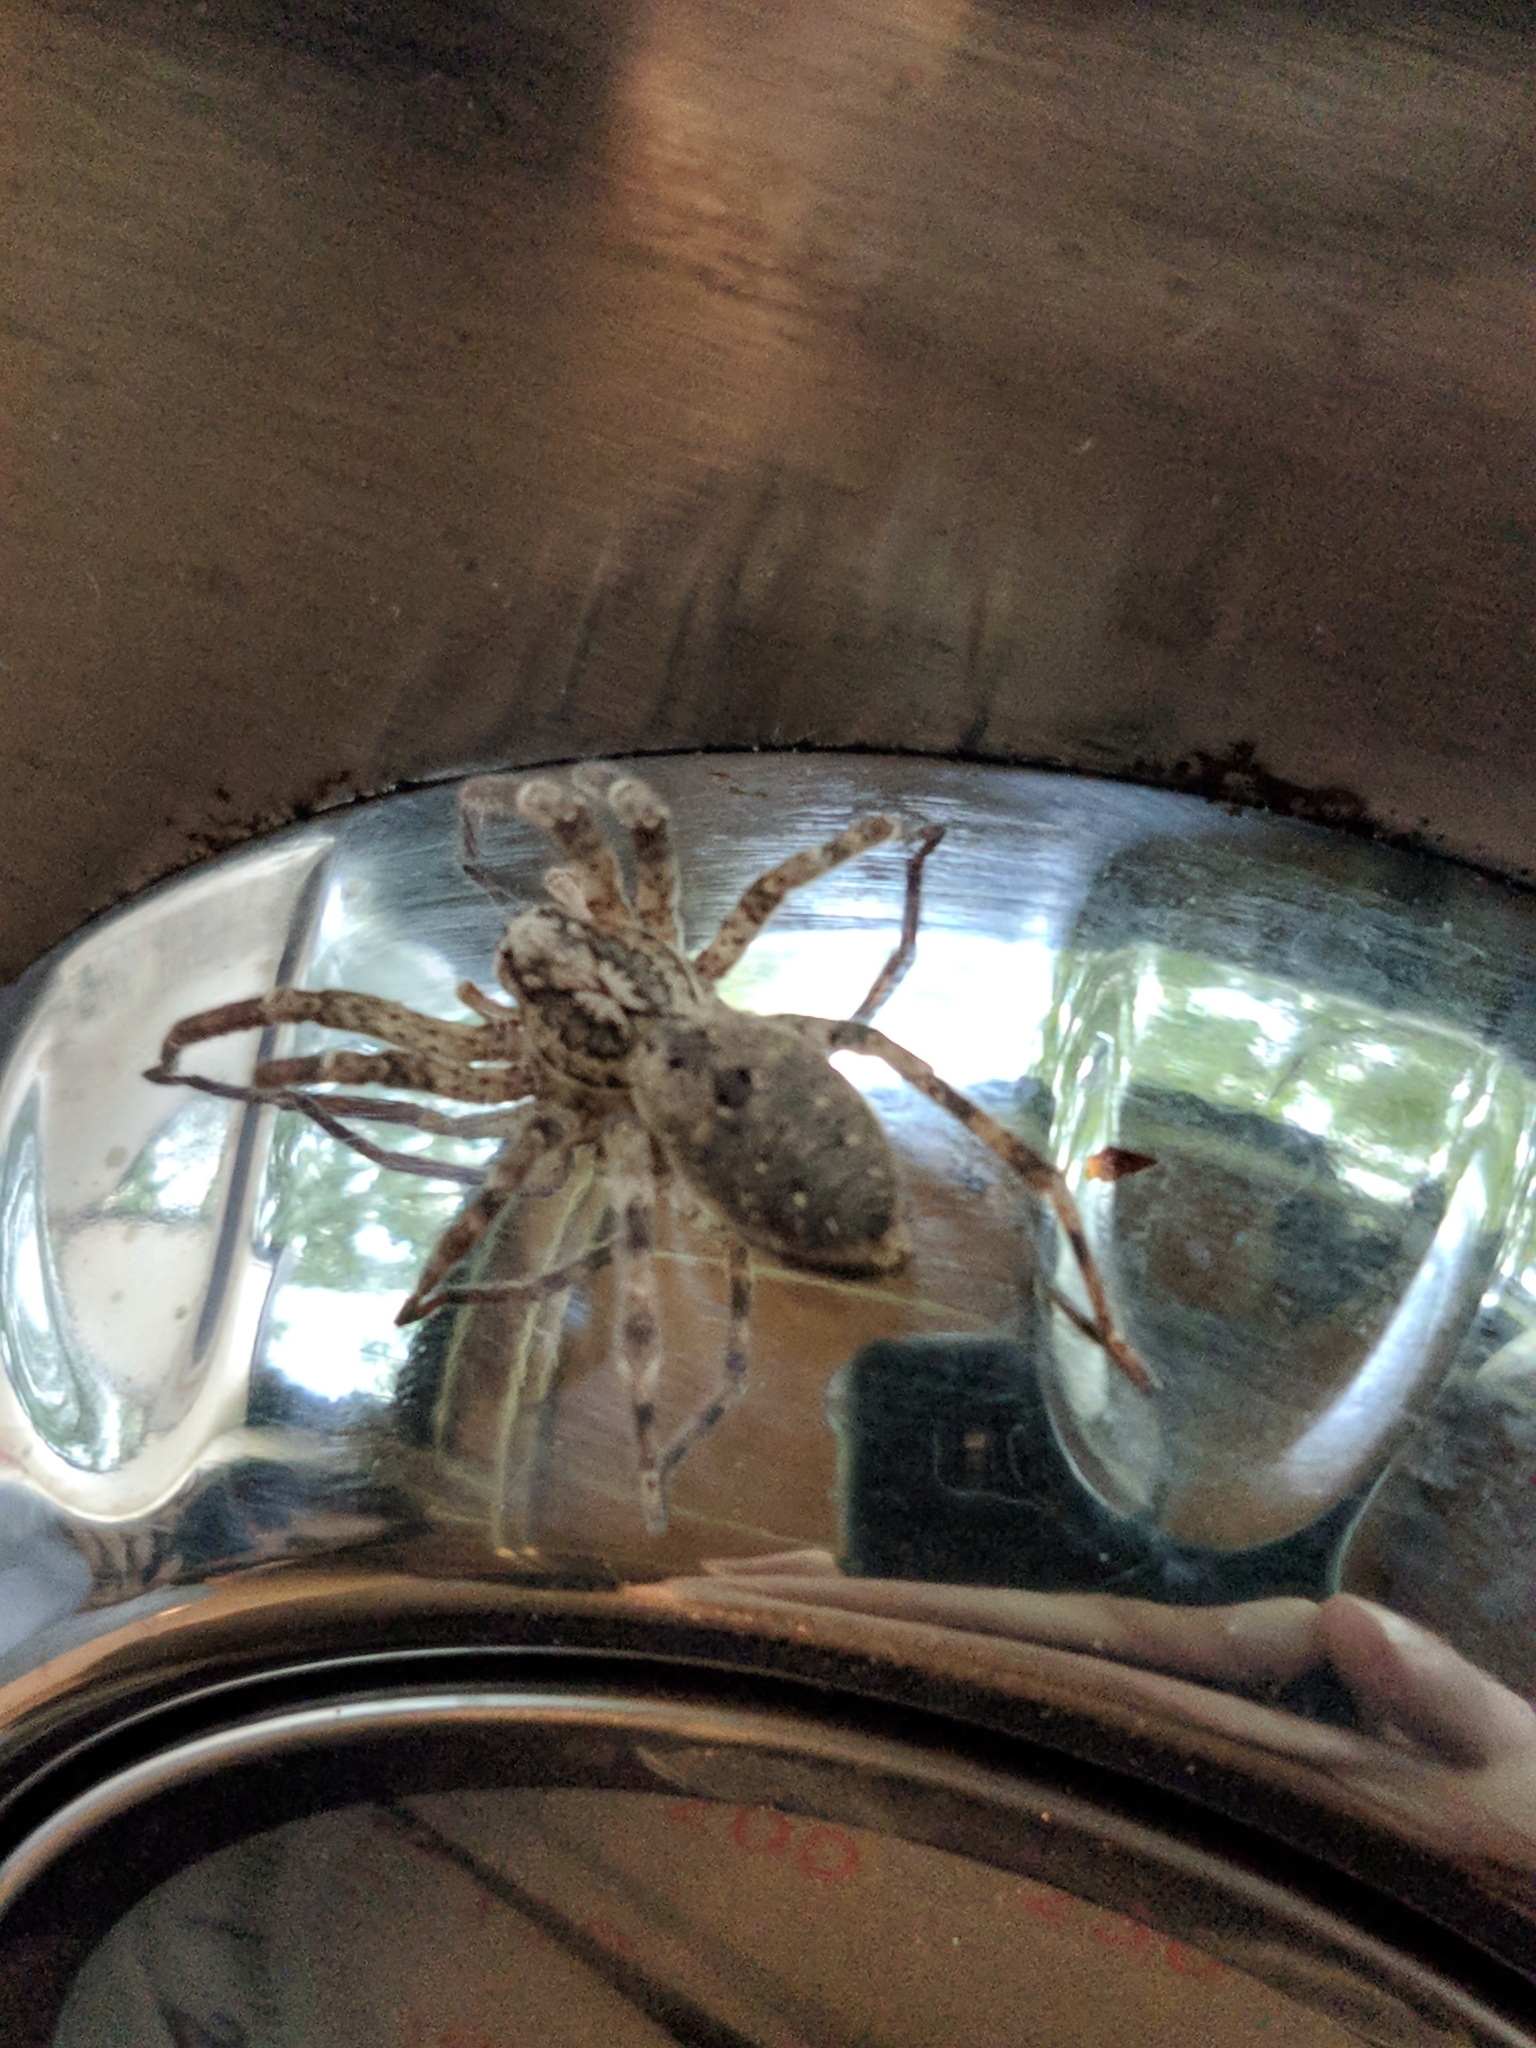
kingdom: Animalia
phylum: Arthropoda
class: Arachnida
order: Araneae
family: Zoropsidae
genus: Zoropsis
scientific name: Zoropsis spinimana
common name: Zoropsid spider
